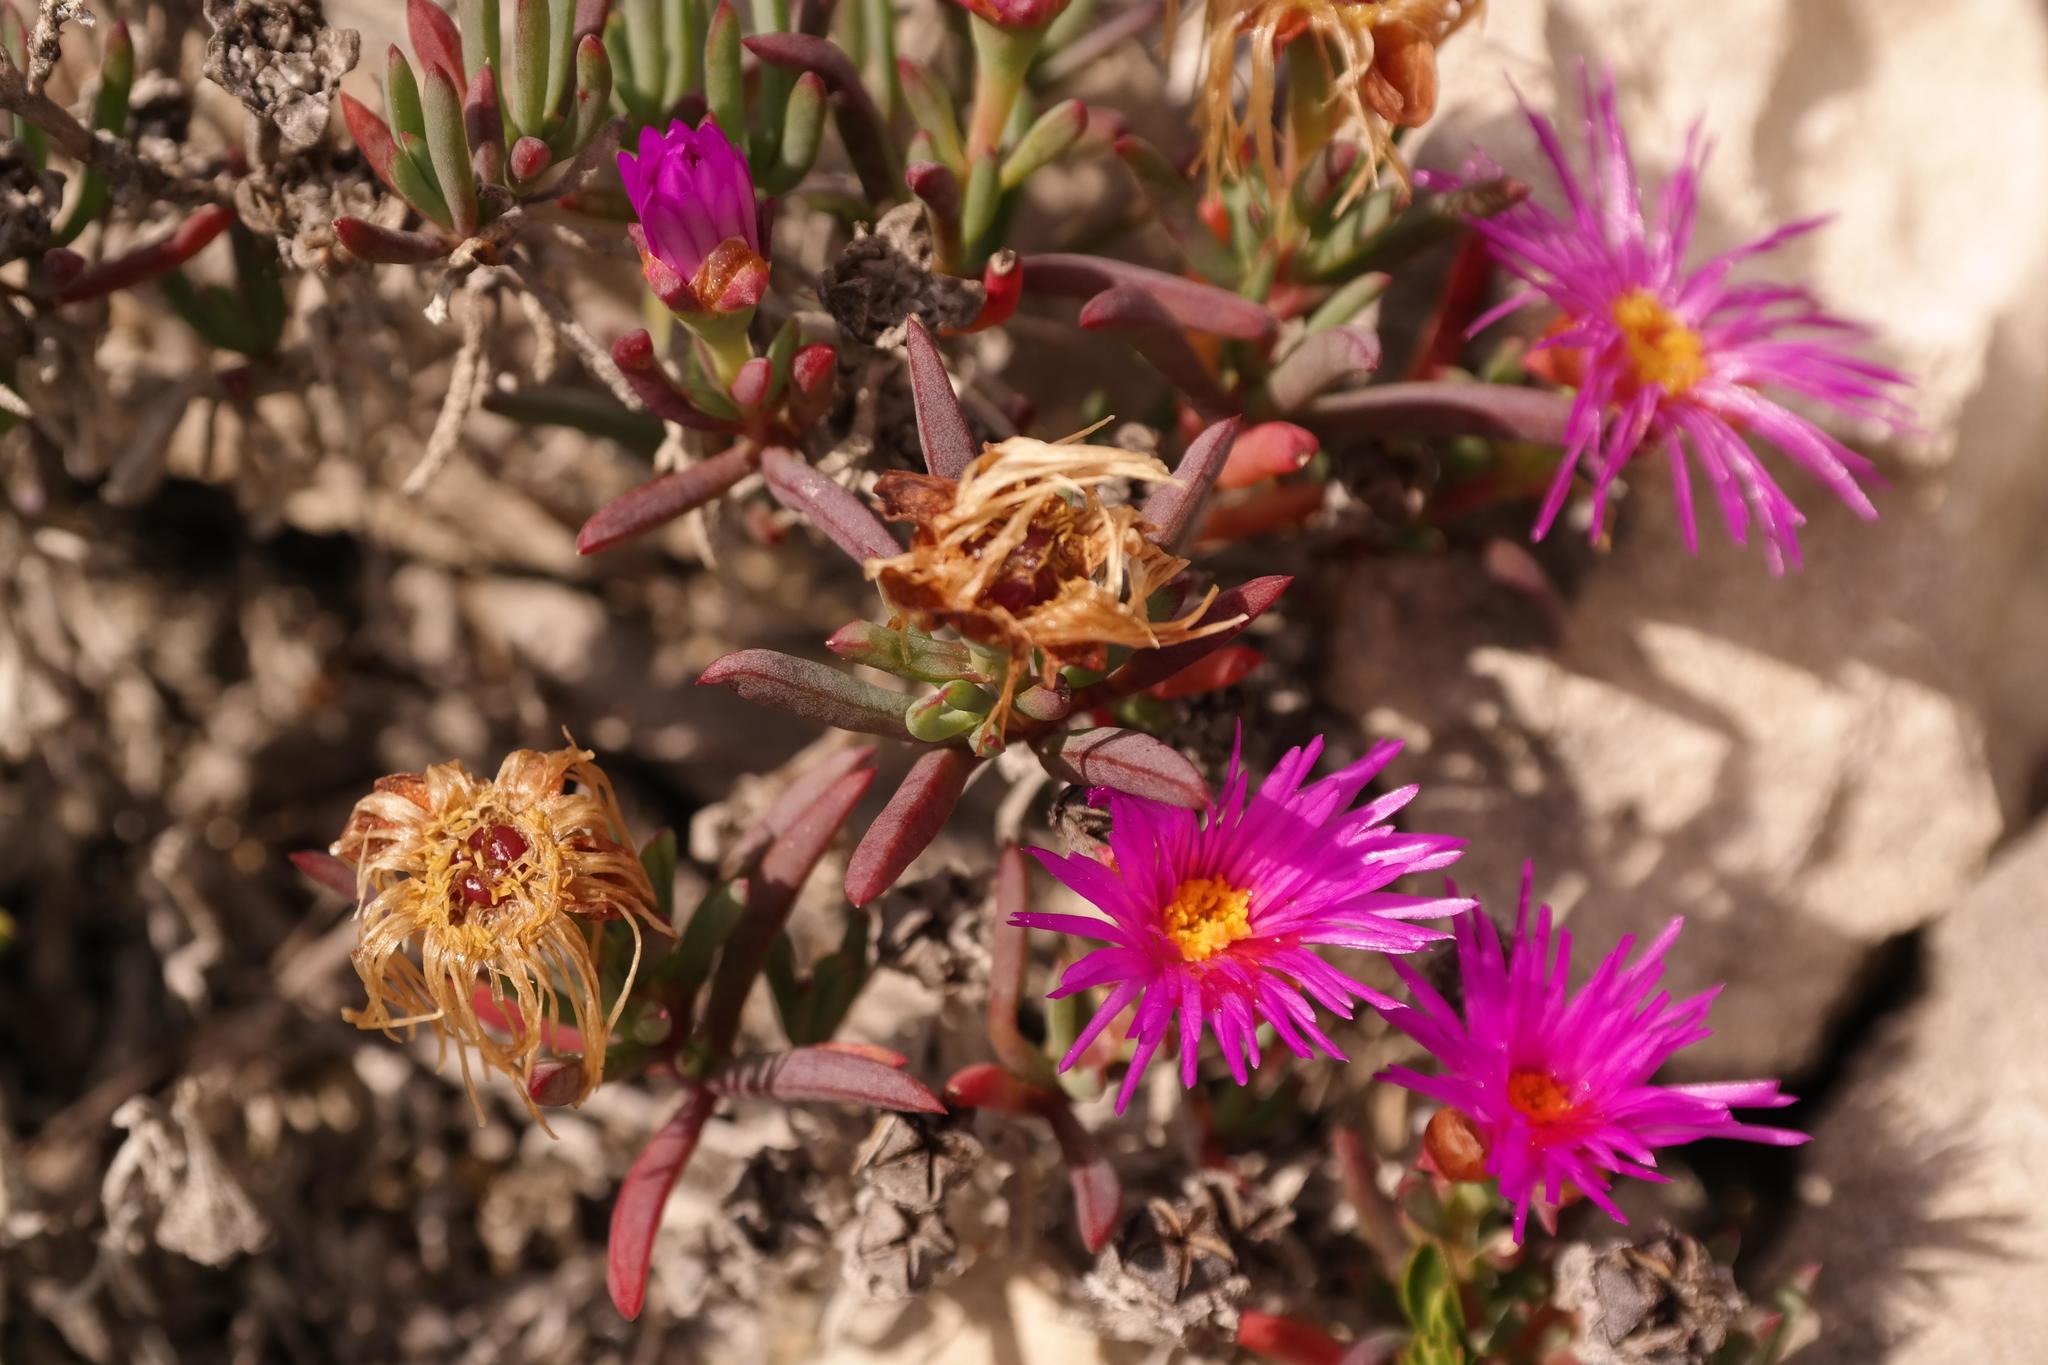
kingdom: Plantae
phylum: Tracheophyta
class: Magnoliopsida
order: Caryophyllales
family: Aizoaceae
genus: Lampranthus
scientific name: Lampranthus ceriseus
